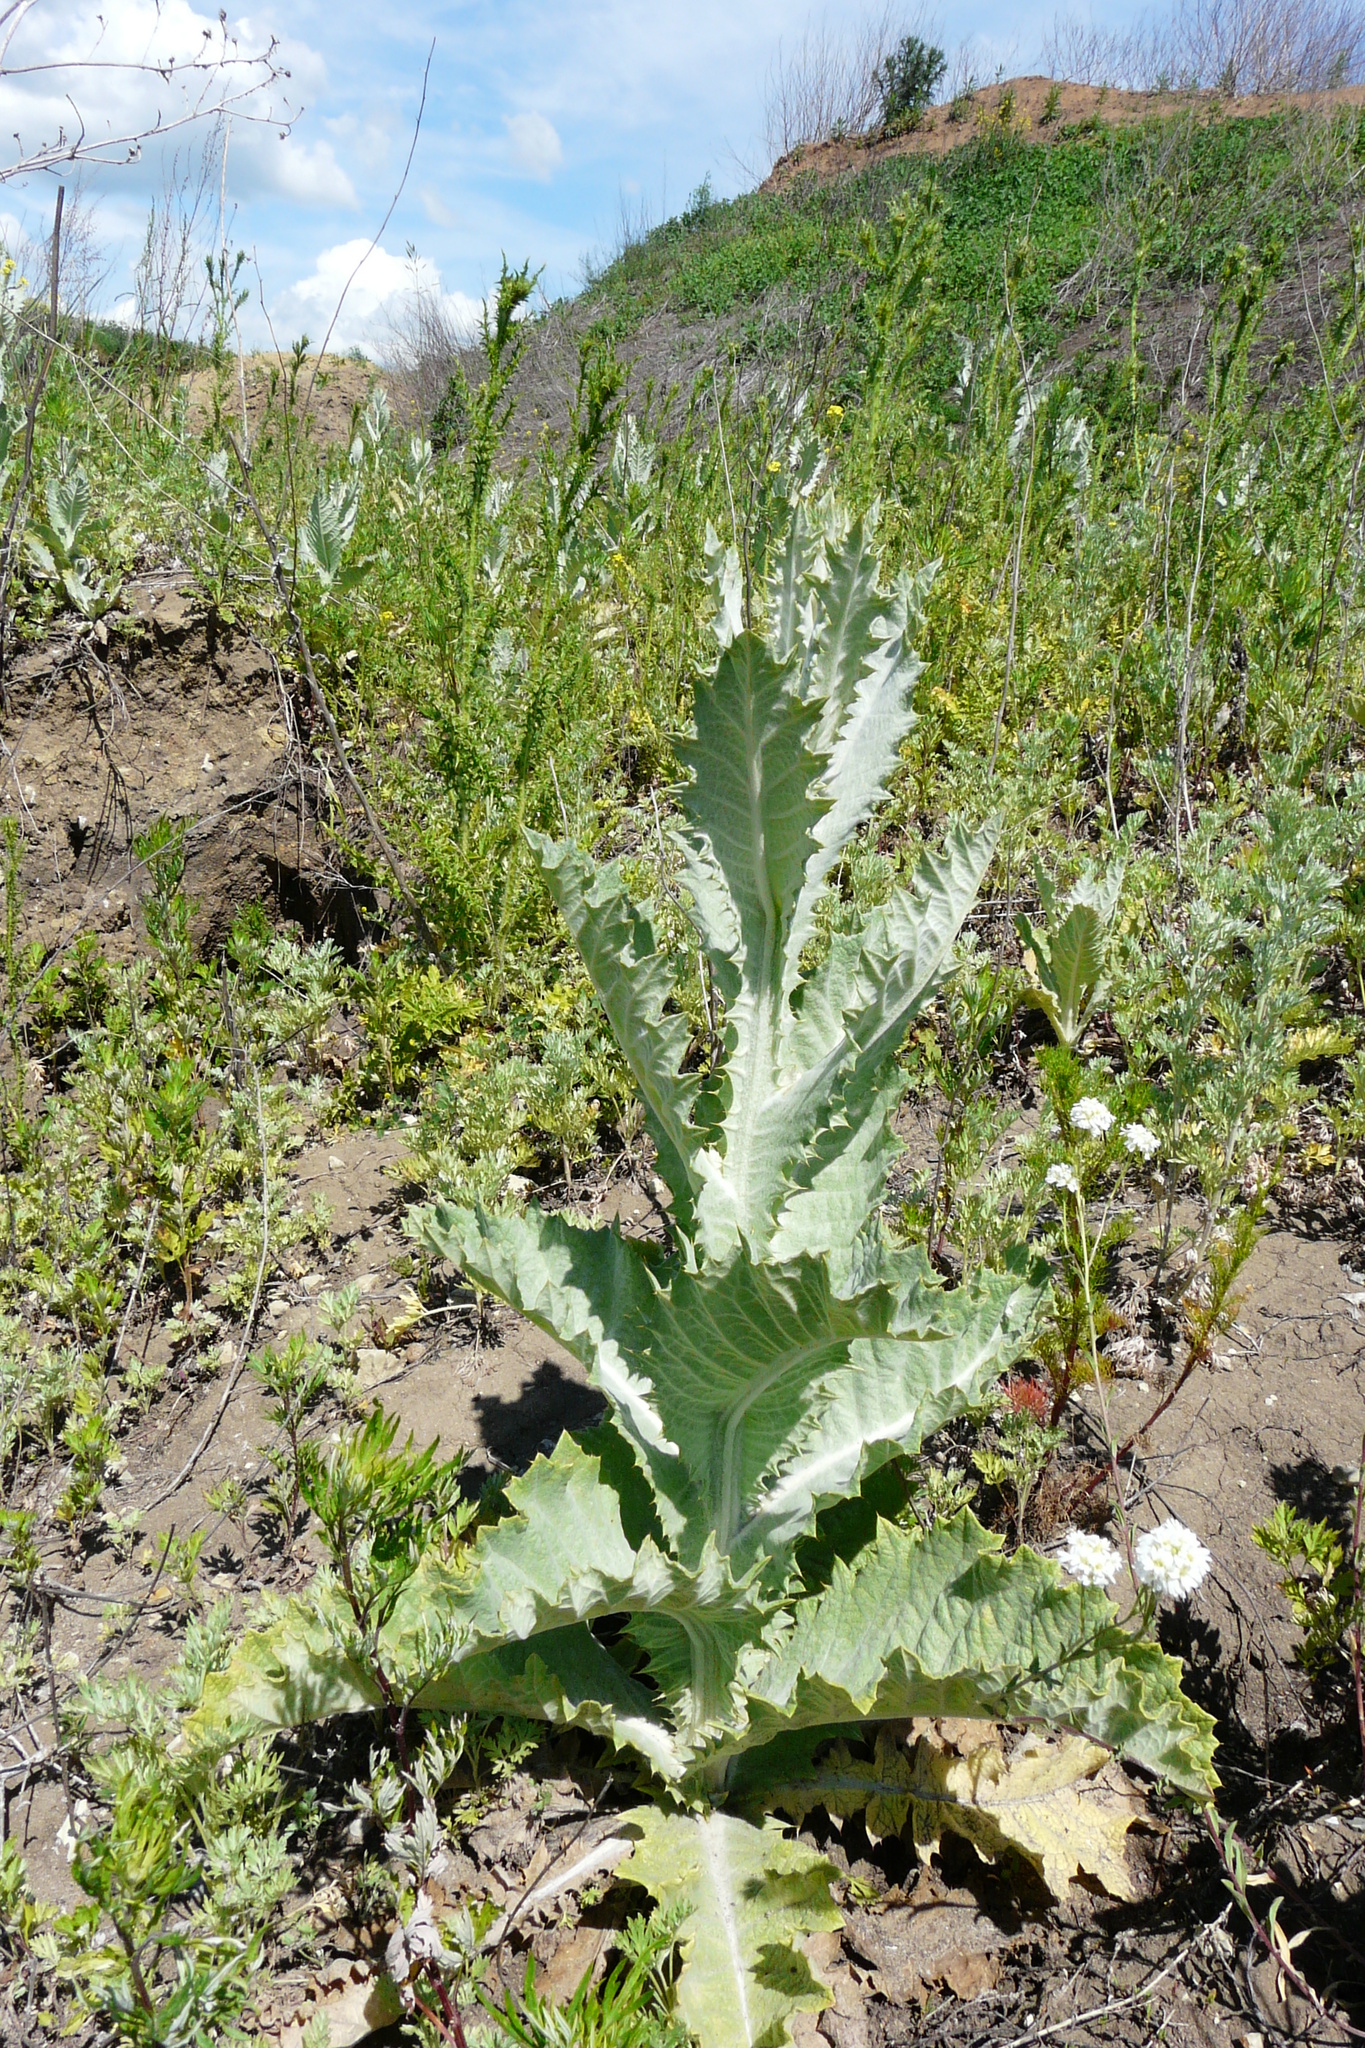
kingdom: Plantae
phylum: Tracheophyta
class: Magnoliopsida
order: Asterales
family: Asteraceae
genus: Onopordum
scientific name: Onopordum acanthium
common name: Scotch thistle
